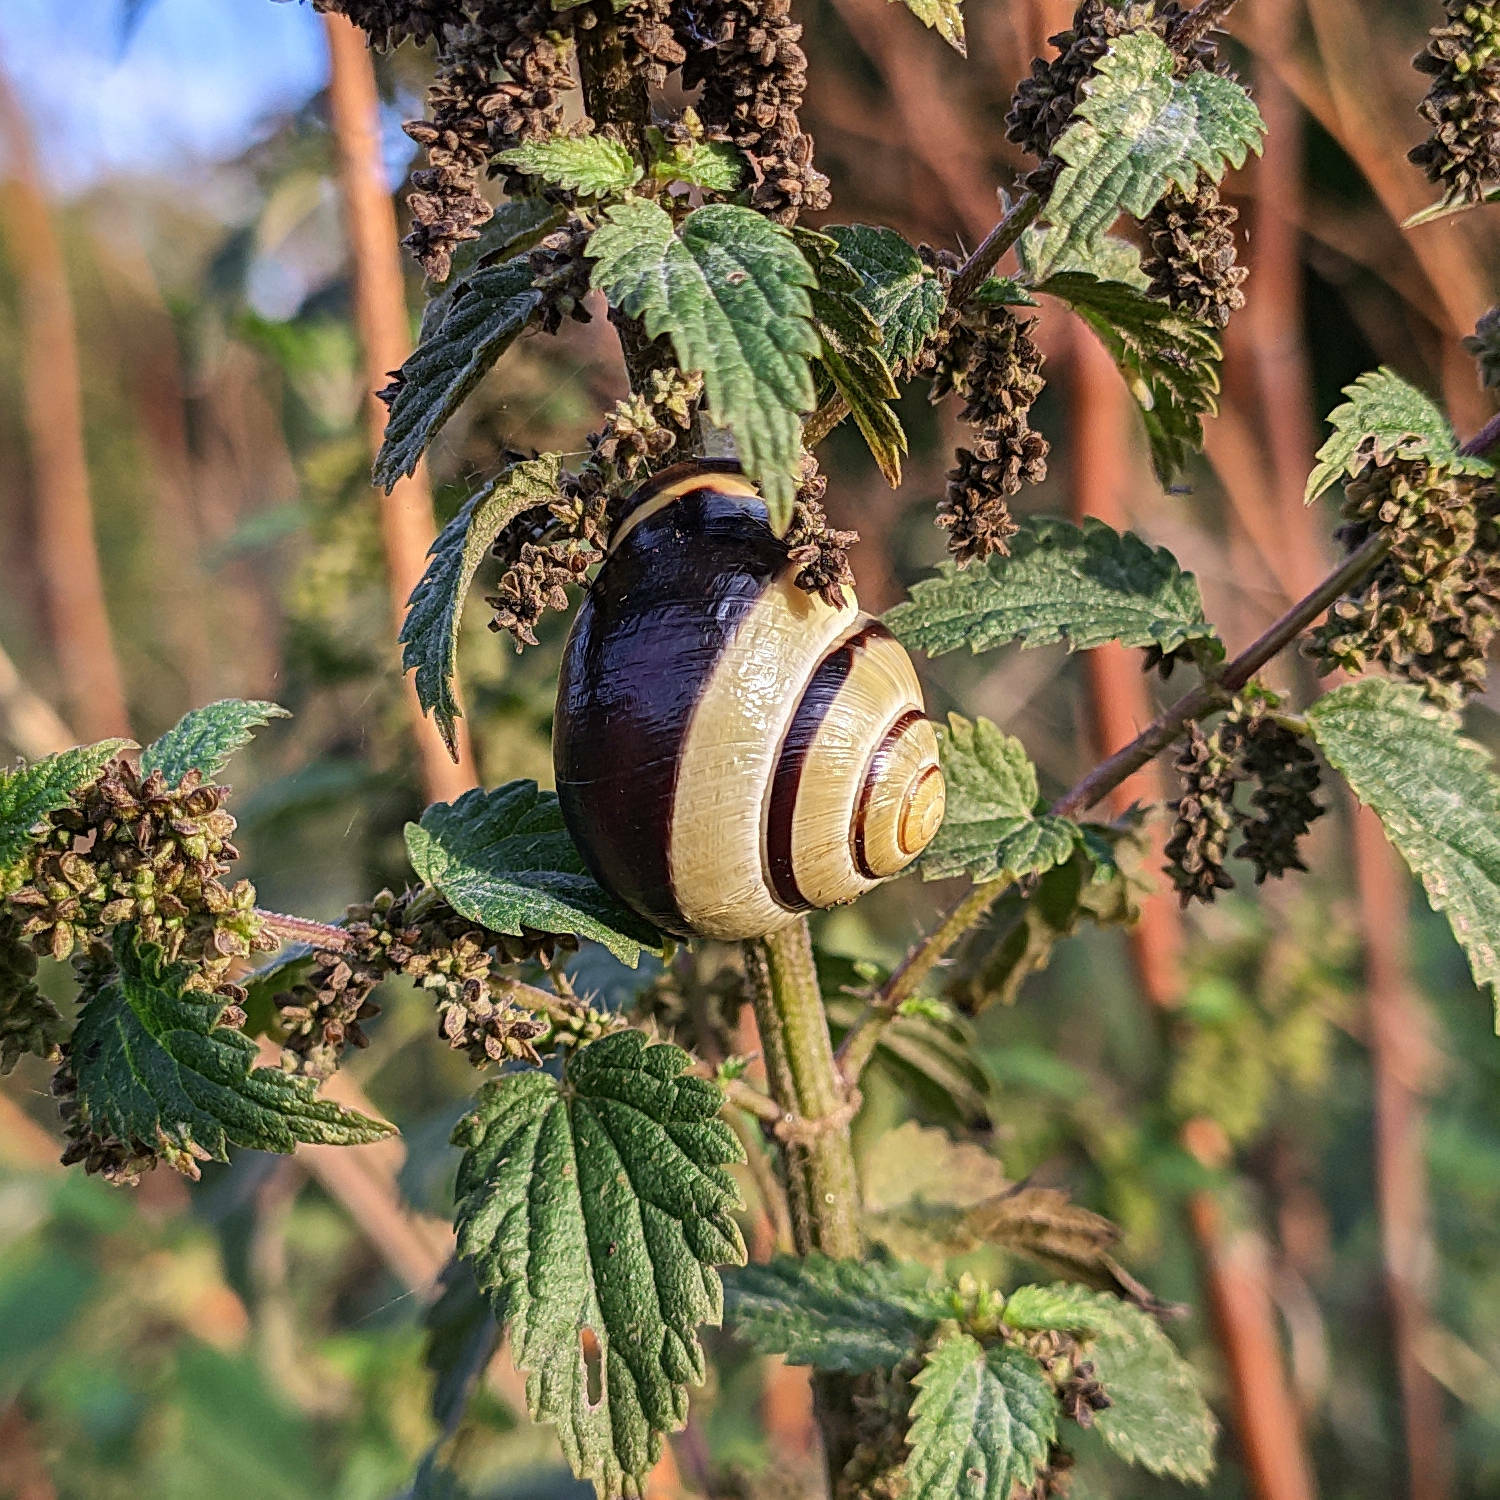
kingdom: Animalia
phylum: Mollusca
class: Gastropoda
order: Stylommatophora
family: Helicidae
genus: Cepaea
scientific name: Cepaea nemoralis
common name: Grovesnail
